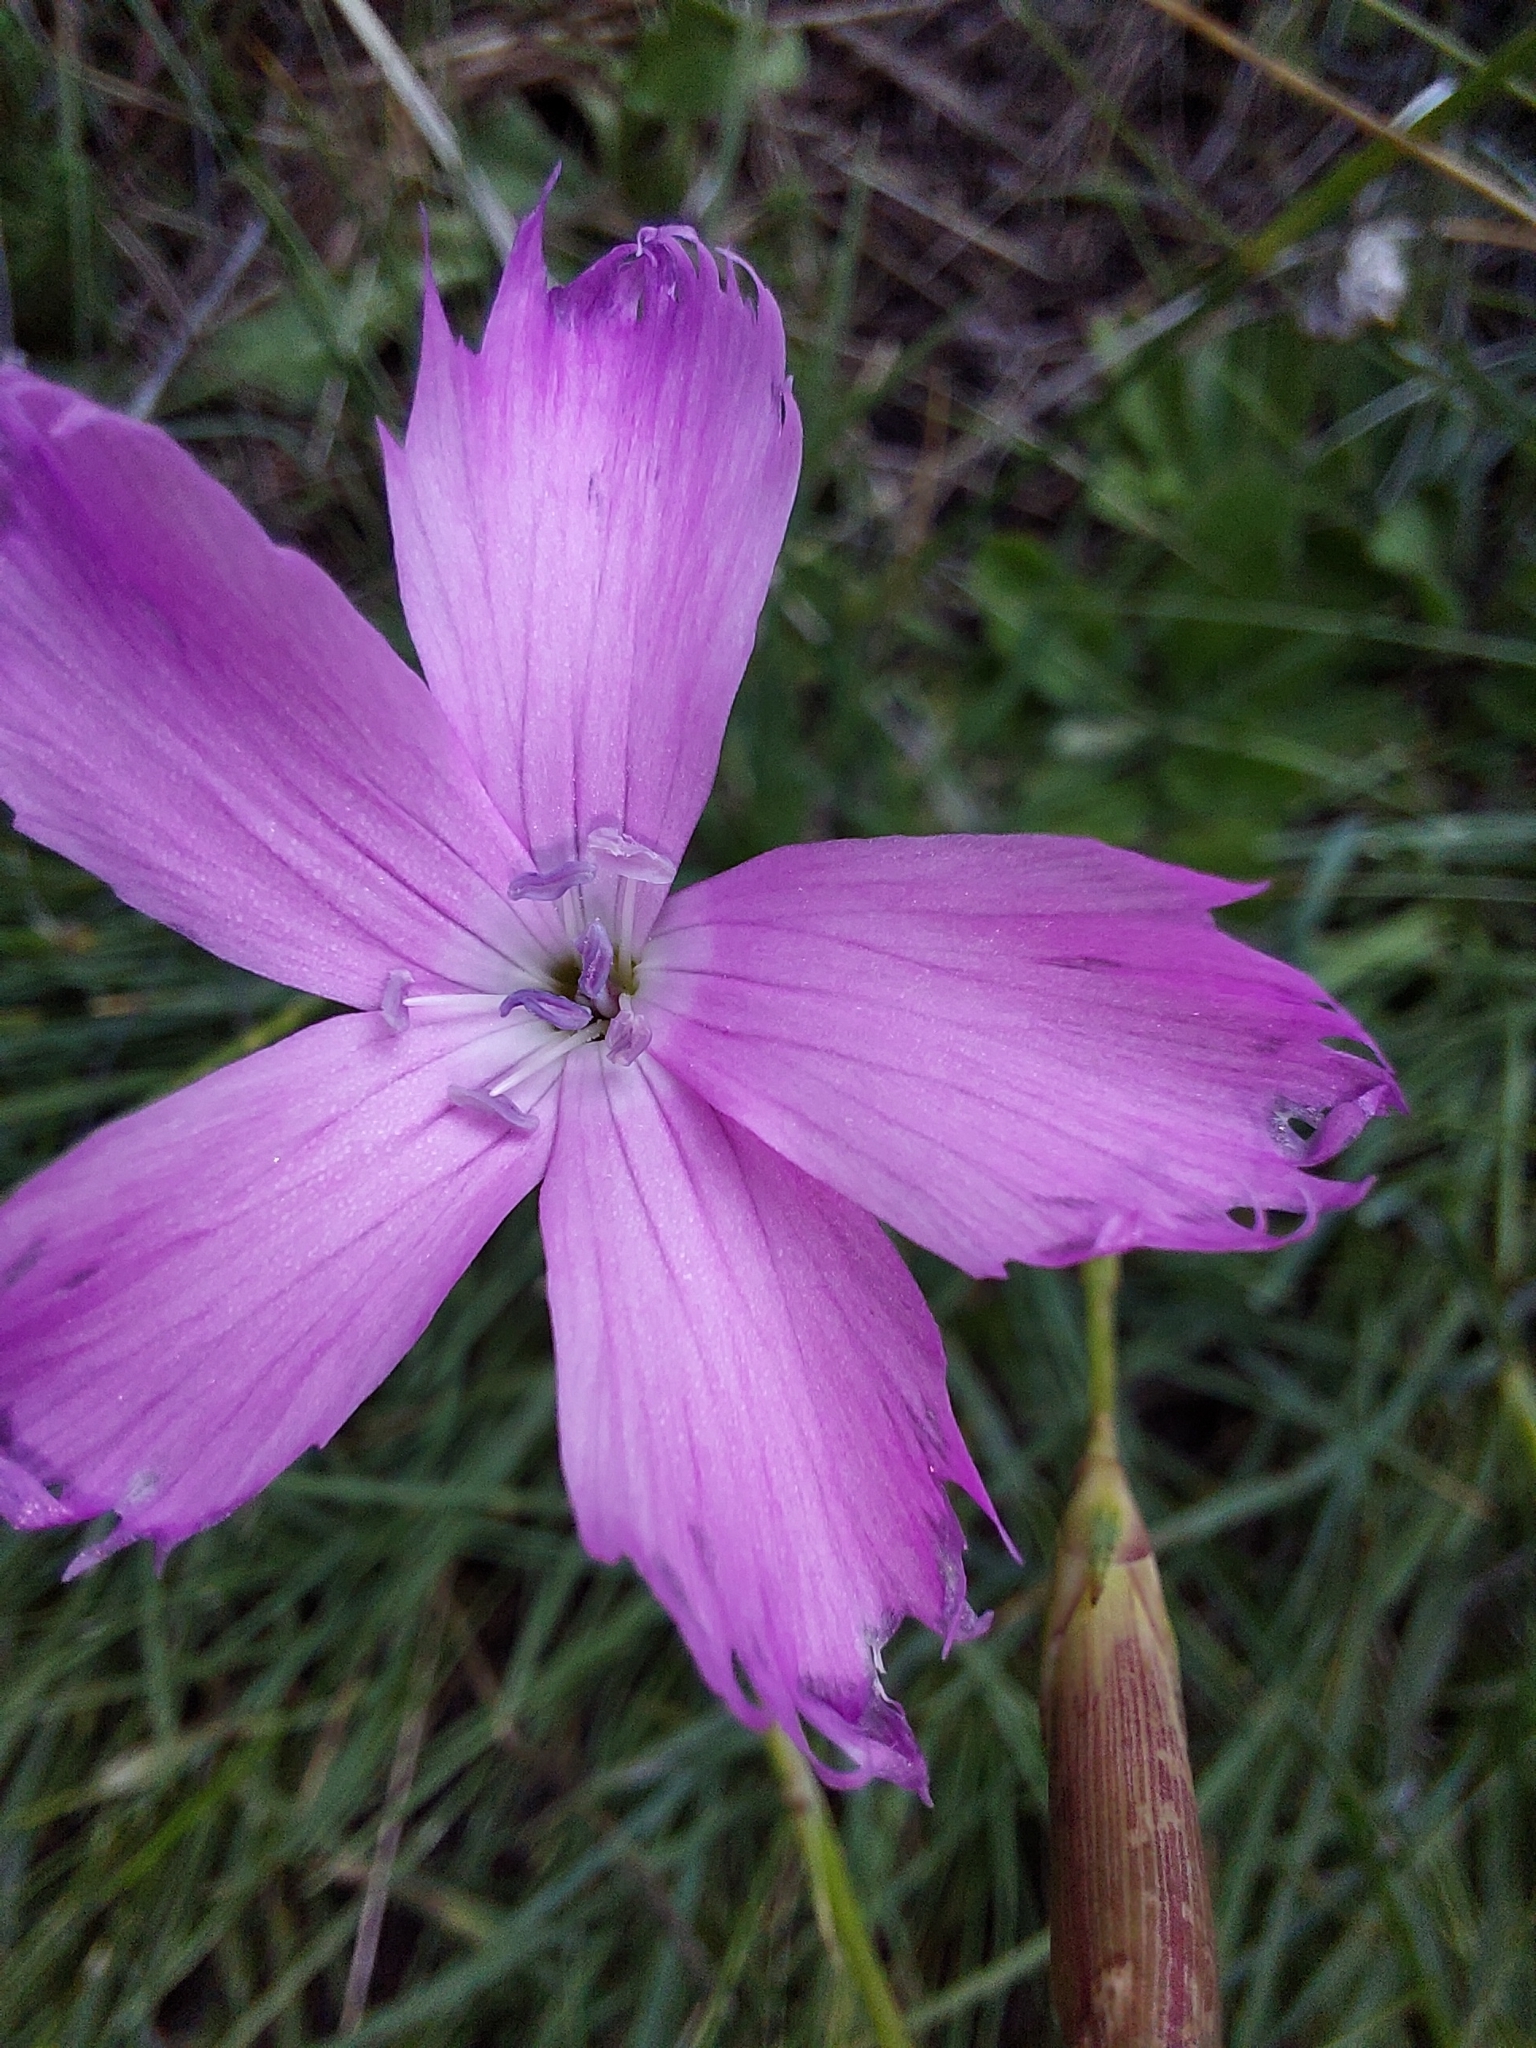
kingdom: Plantae
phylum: Tracheophyta
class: Magnoliopsida
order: Caryophyllales
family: Caryophyllaceae
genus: Dianthus
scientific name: Dianthus basuticus
